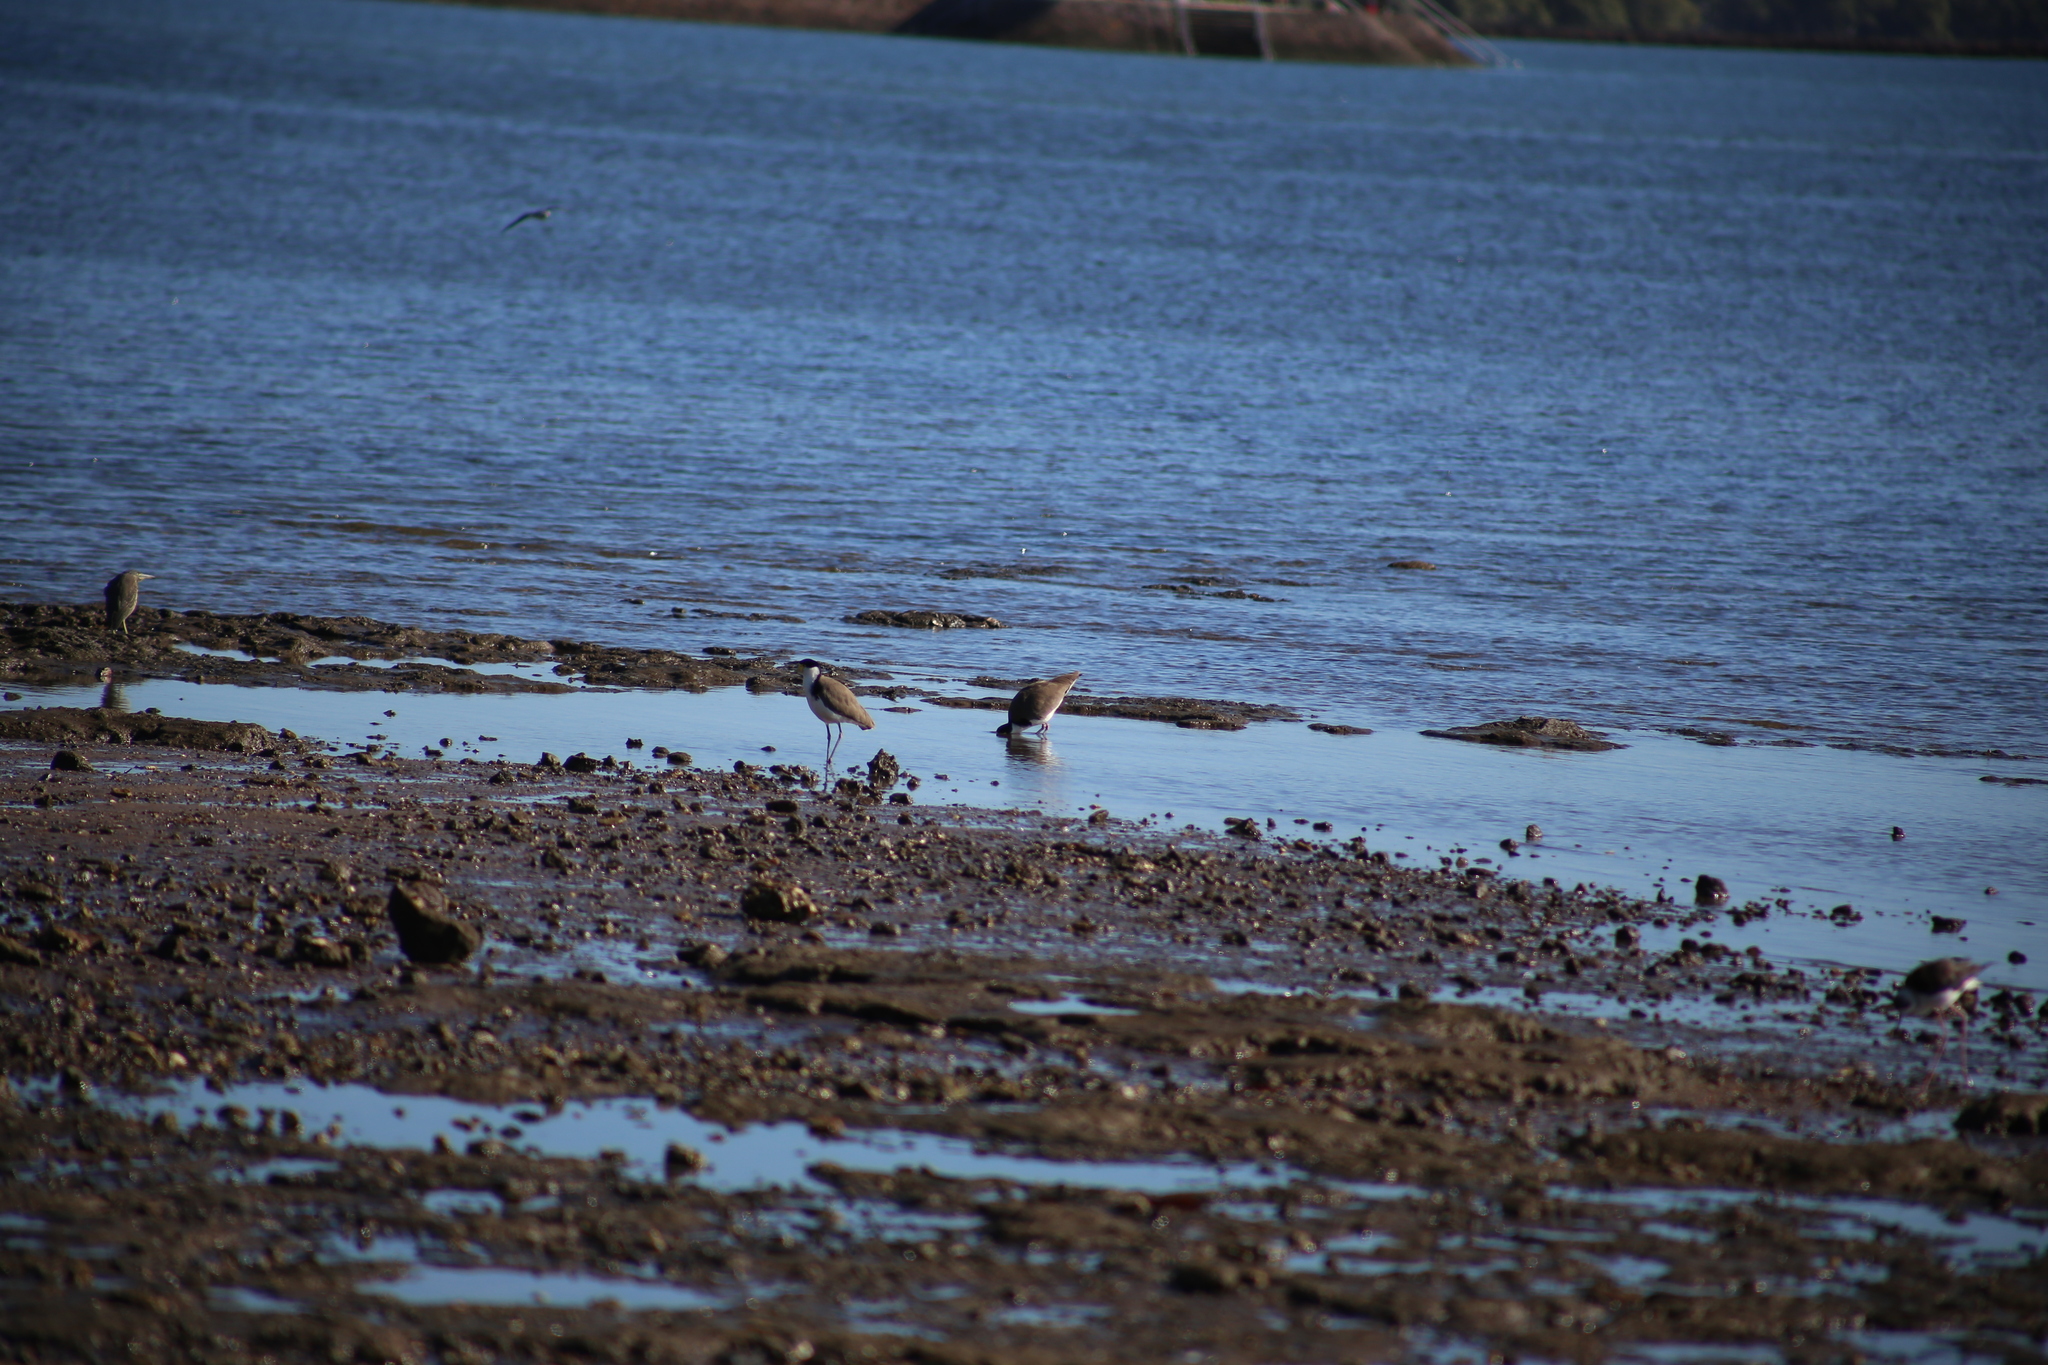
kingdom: Animalia
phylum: Chordata
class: Aves
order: Charadriiformes
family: Charadriidae
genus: Vanellus
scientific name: Vanellus miles
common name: Masked lapwing
